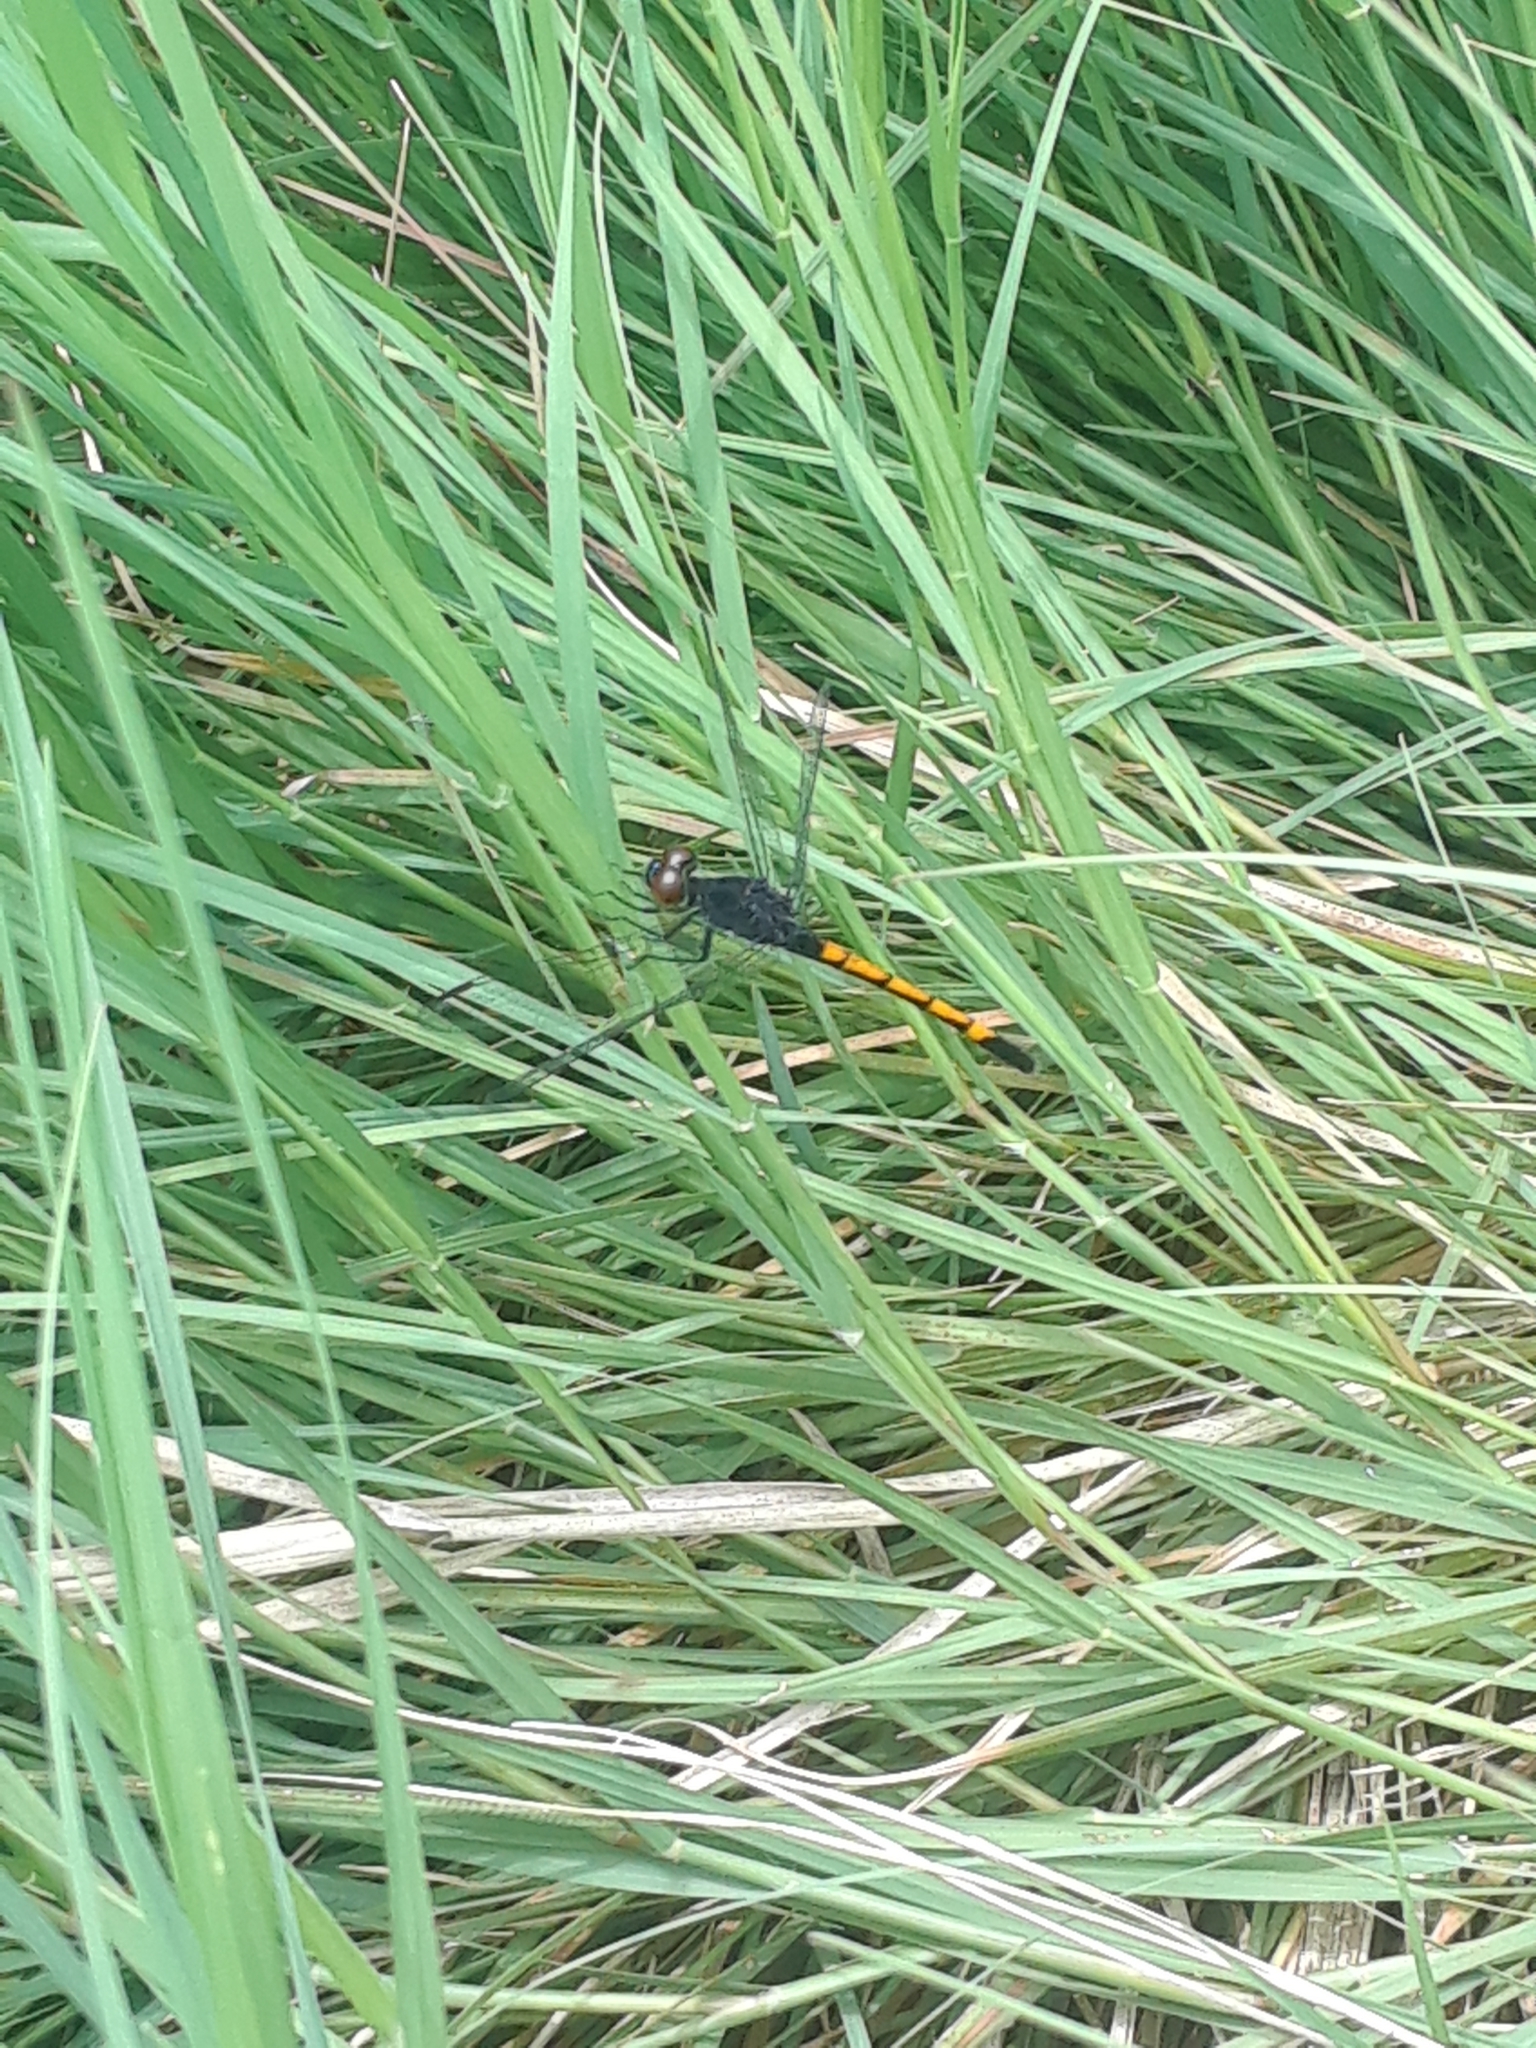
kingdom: Animalia
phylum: Arthropoda
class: Insecta
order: Odonata
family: Libellulidae
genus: Erythrodiplax
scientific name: Erythrodiplax berenice
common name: Seaside dragonlet
